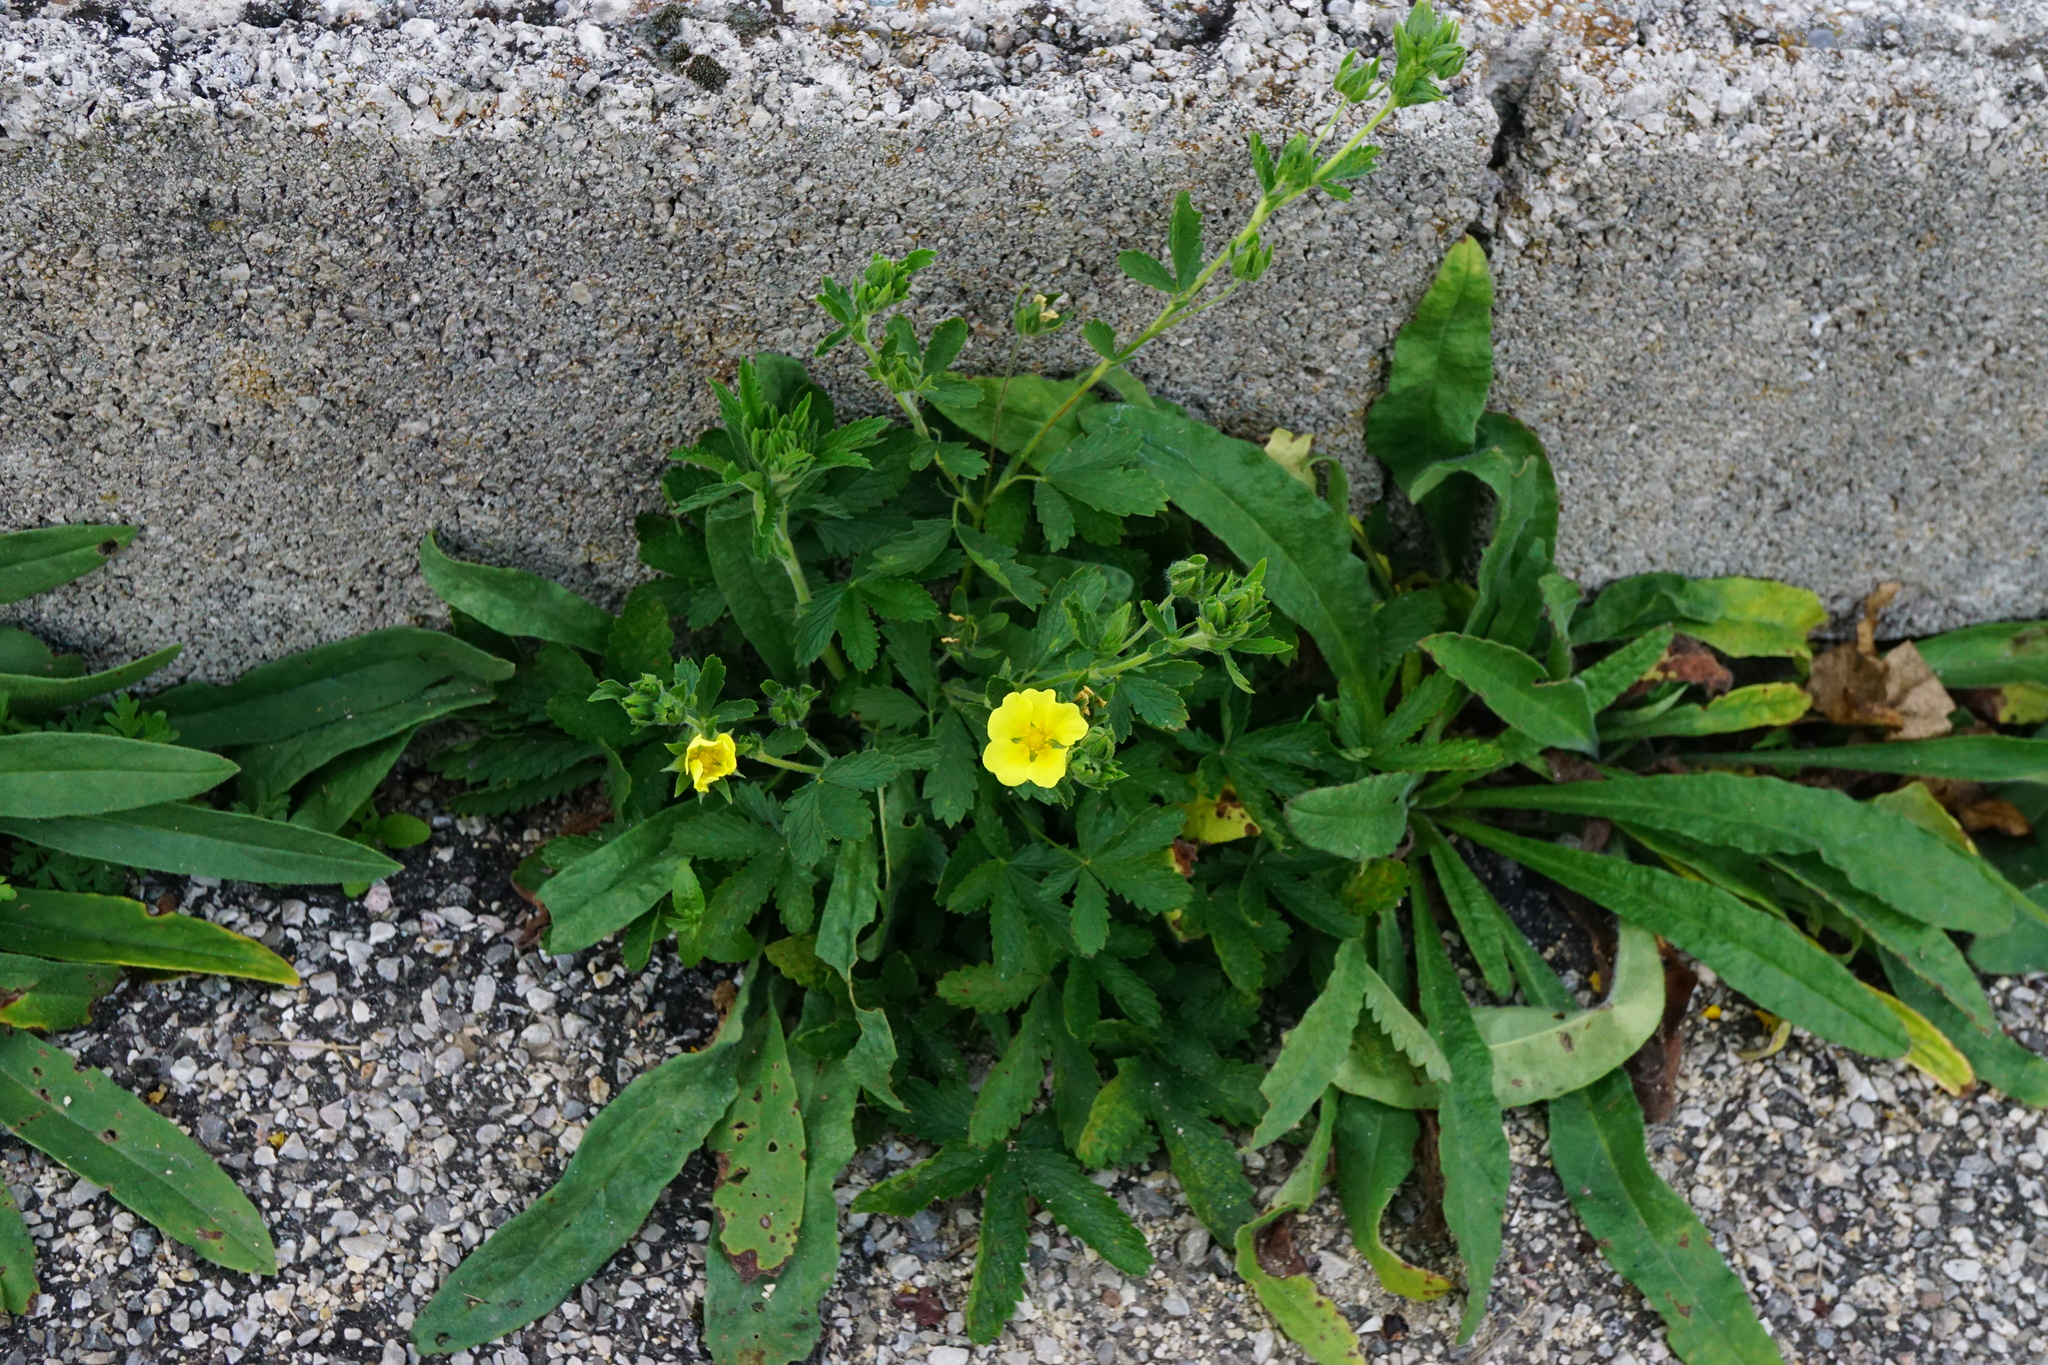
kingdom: Plantae
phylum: Tracheophyta
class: Magnoliopsida
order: Rosales
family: Rosaceae
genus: Potentilla
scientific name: Potentilla recta
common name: Sulphur cinquefoil
